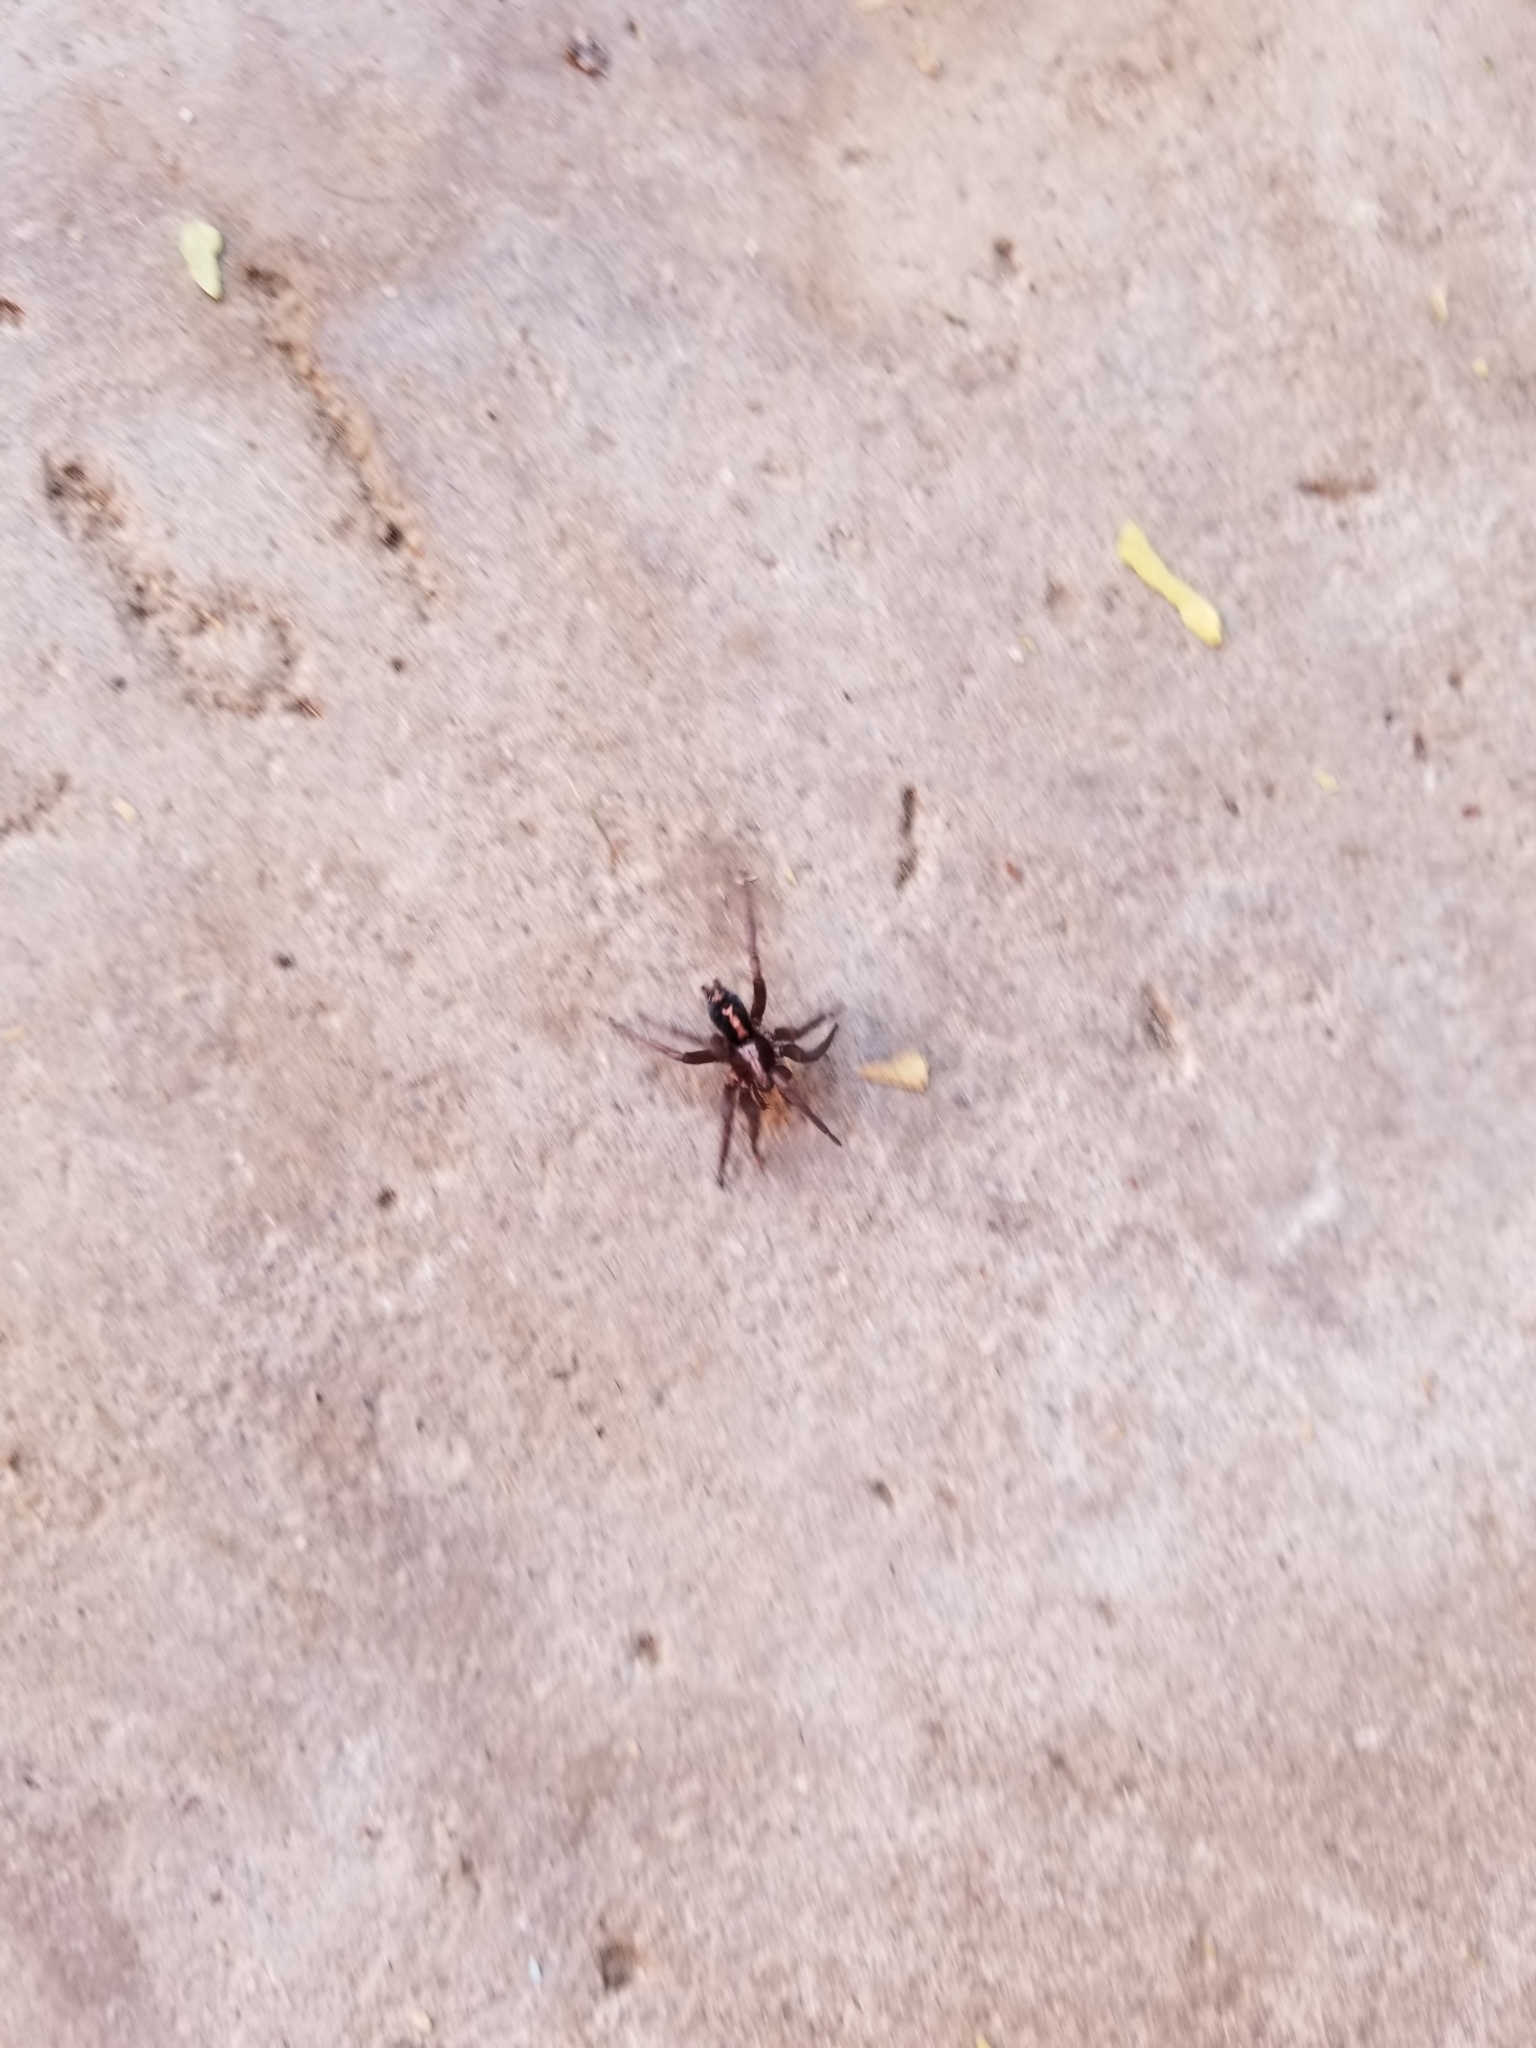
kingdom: Animalia
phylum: Arthropoda
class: Arachnida
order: Araneae
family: Gnaphosidae
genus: Herpyllus
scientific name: Herpyllus propinquus
